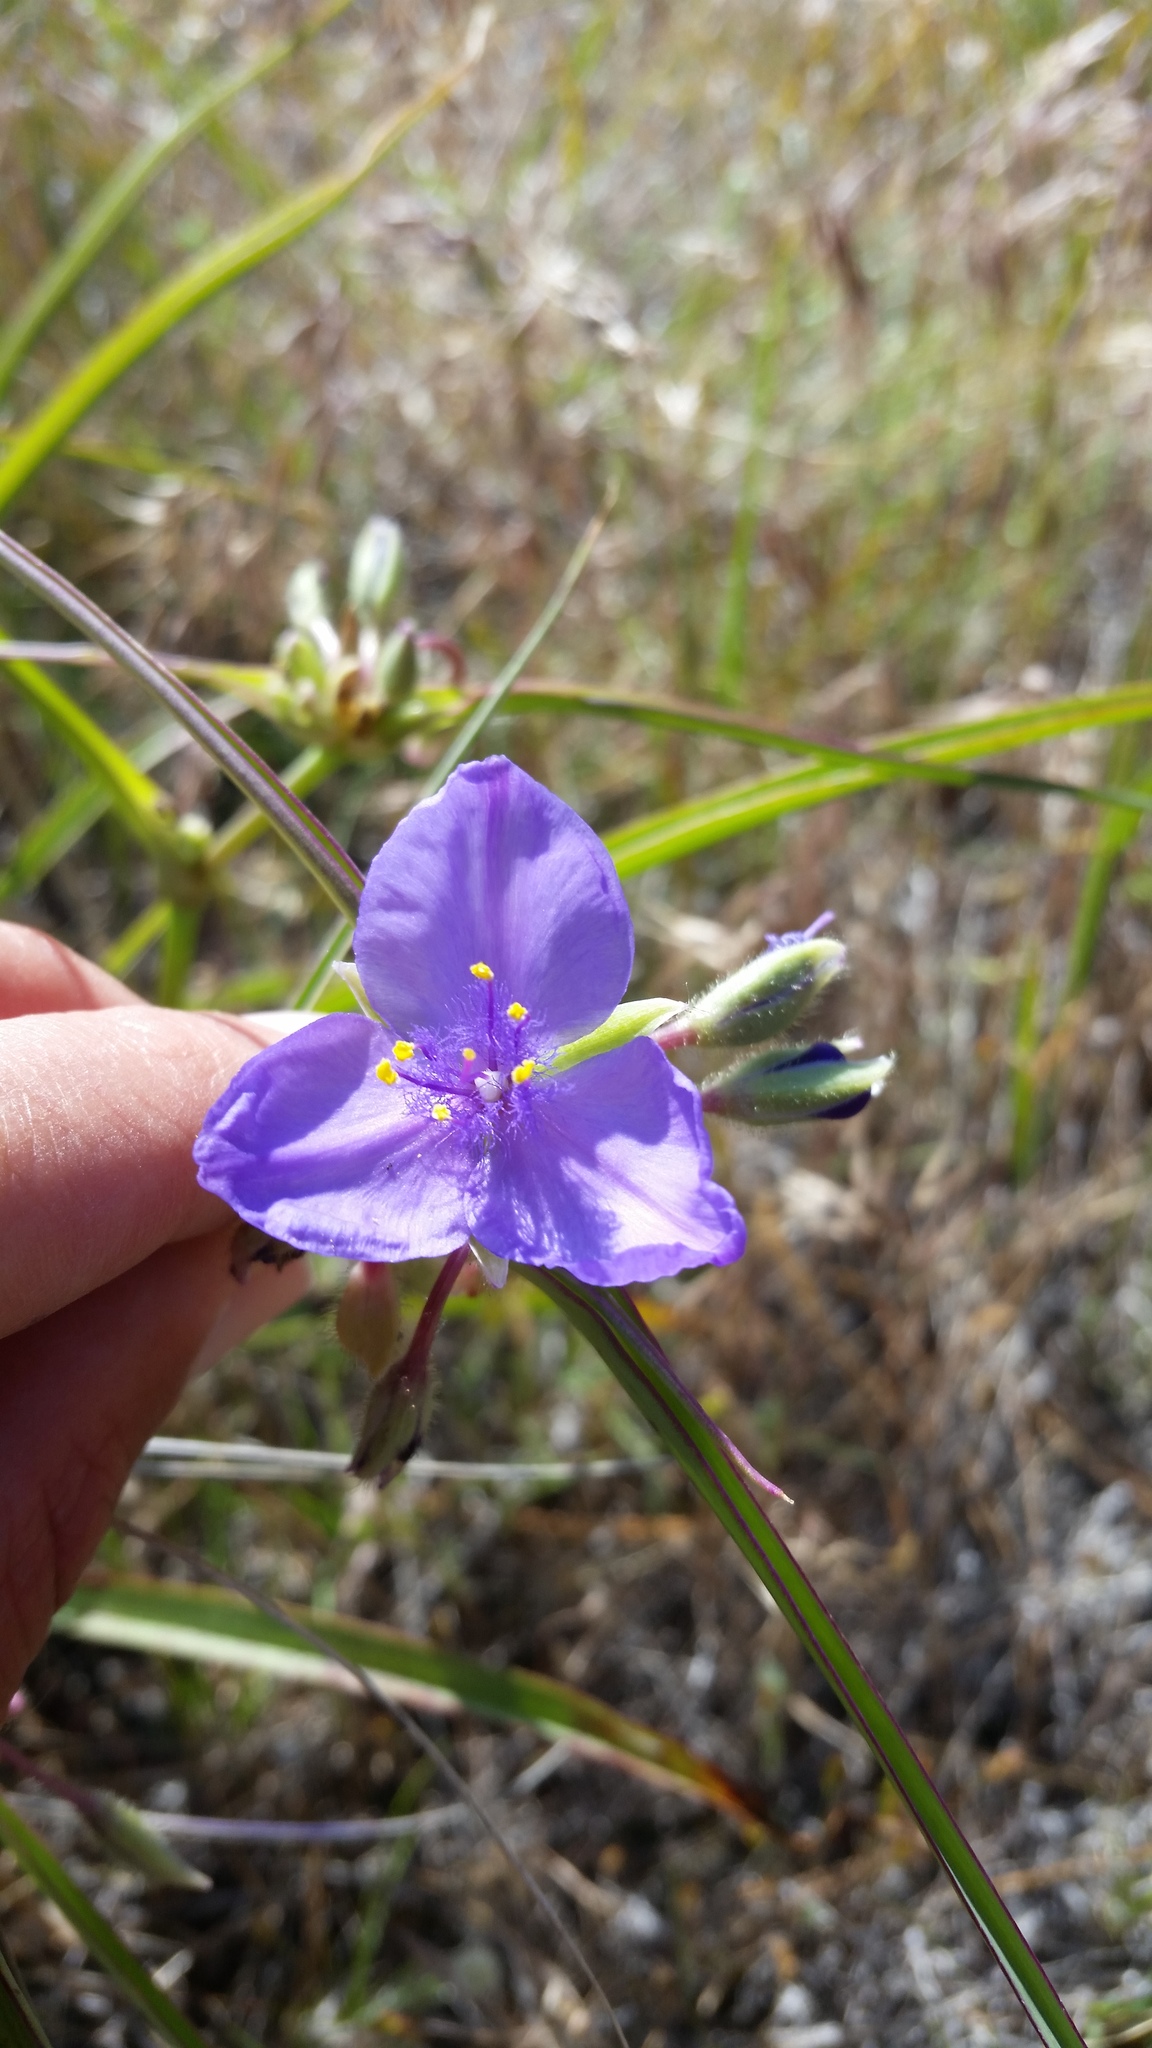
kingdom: Plantae
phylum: Tracheophyta
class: Liliopsida
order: Commelinales
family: Commelinaceae
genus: Tradescantia
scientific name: Tradescantia occidentalis
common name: Prairie spiderwort
